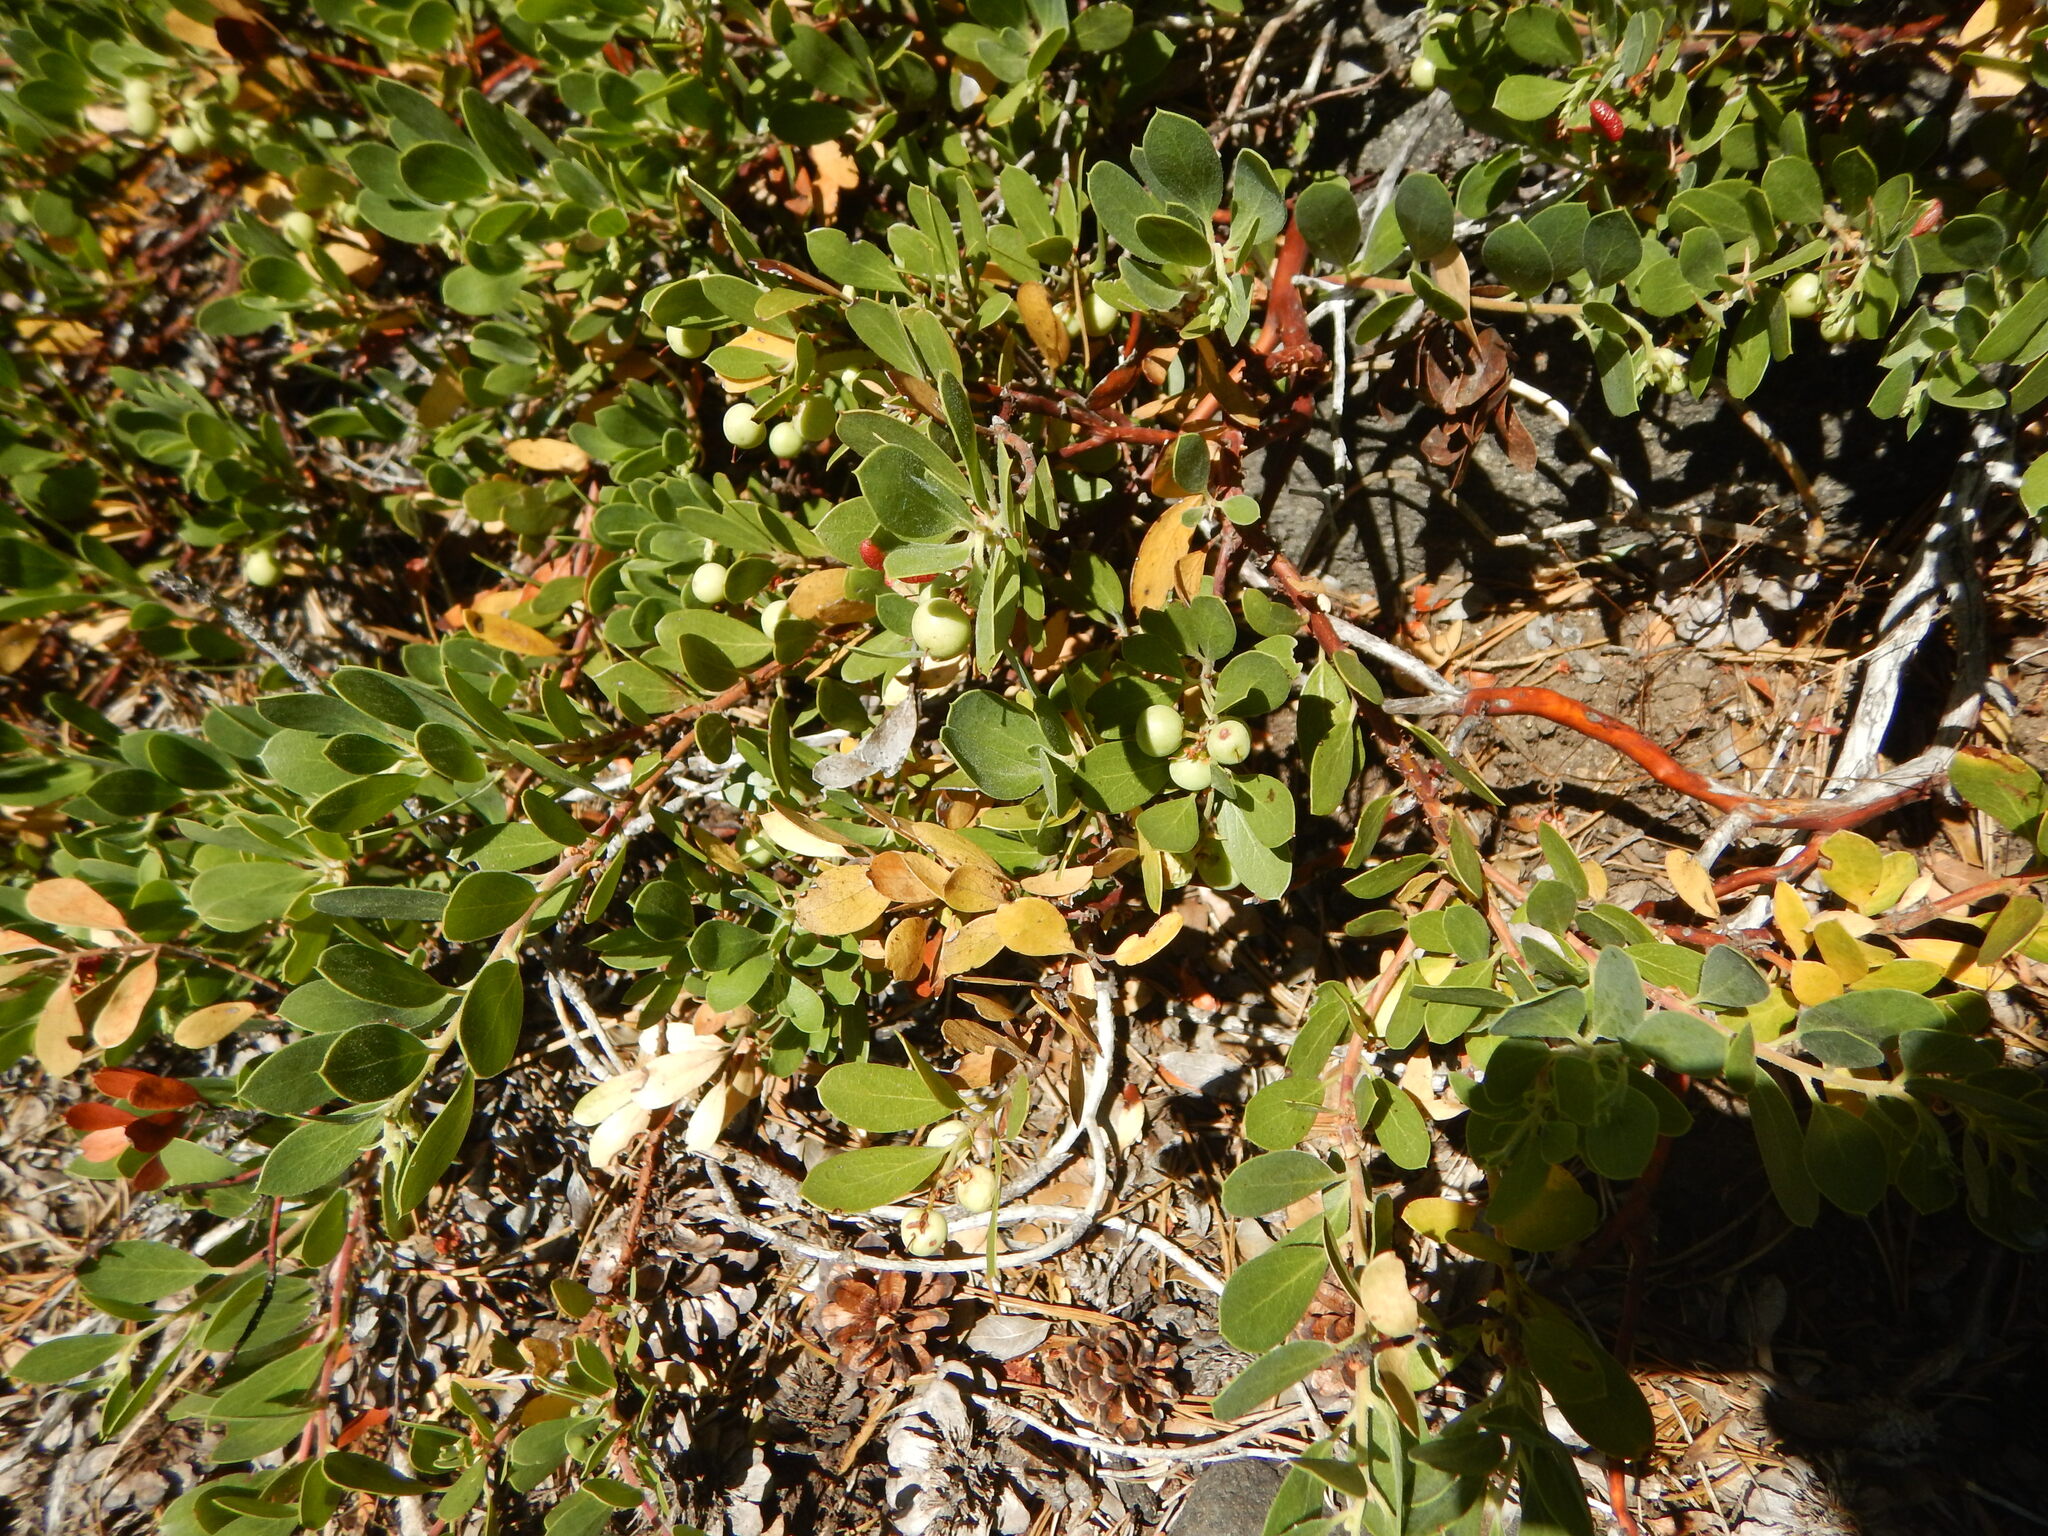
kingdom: Plantae
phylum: Tracheophyta
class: Magnoliopsida
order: Ericales
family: Ericaceae
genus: Arctostaphylos
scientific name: Arctostaphylos nevadensis
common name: Pinemat manzanita
